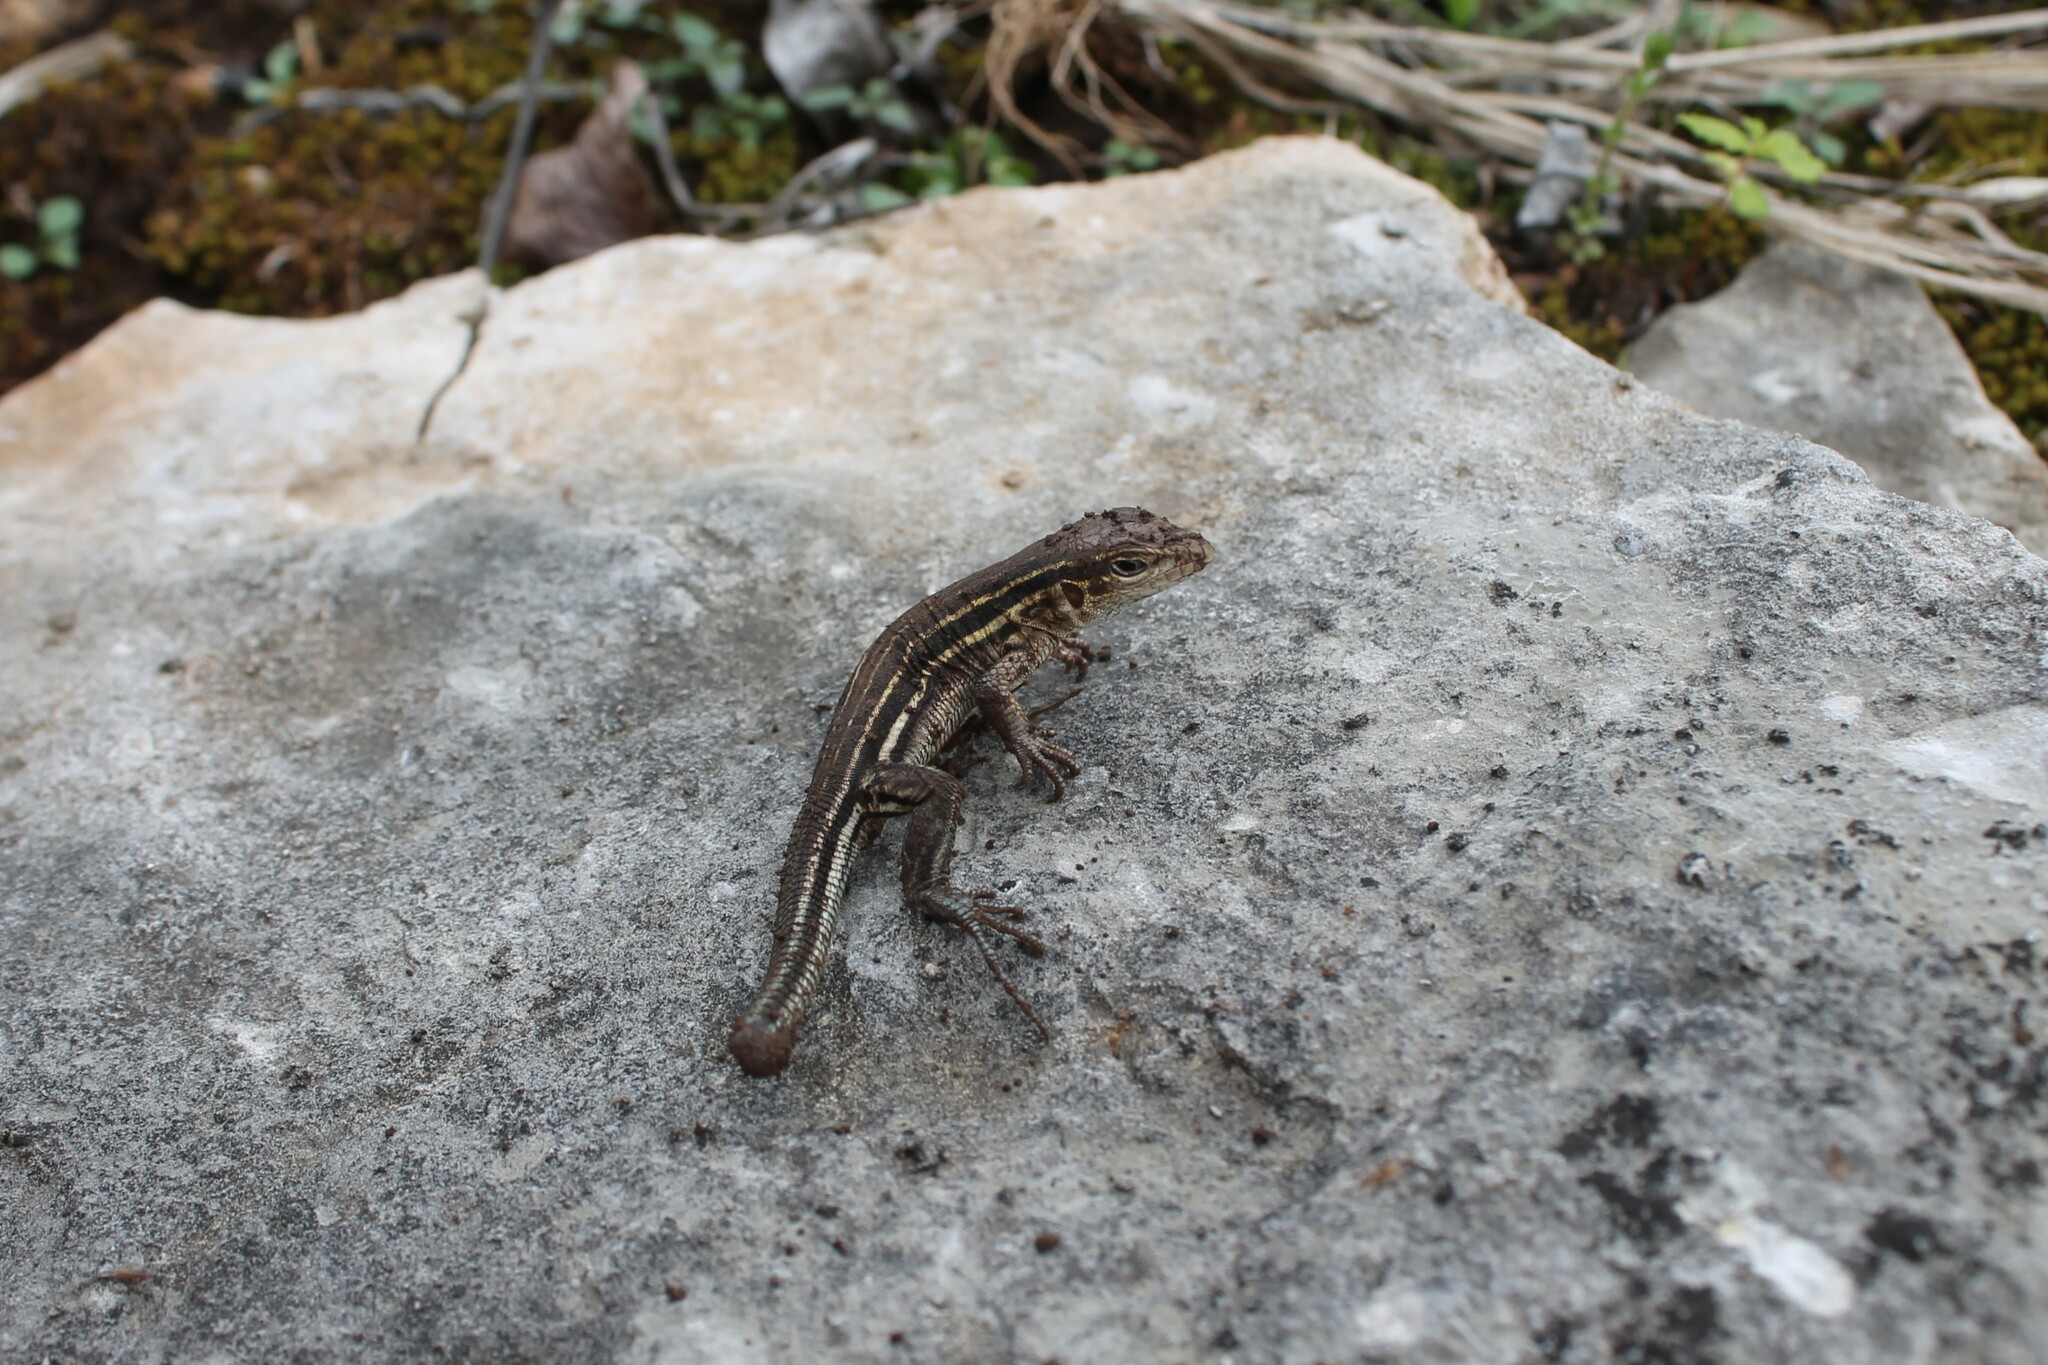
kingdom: Animalia
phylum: Chordata
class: Squamata
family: Teiidae
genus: Aspidoscelis
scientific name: Aspidoscelis sexlineatus
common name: Six-lined racerunner
